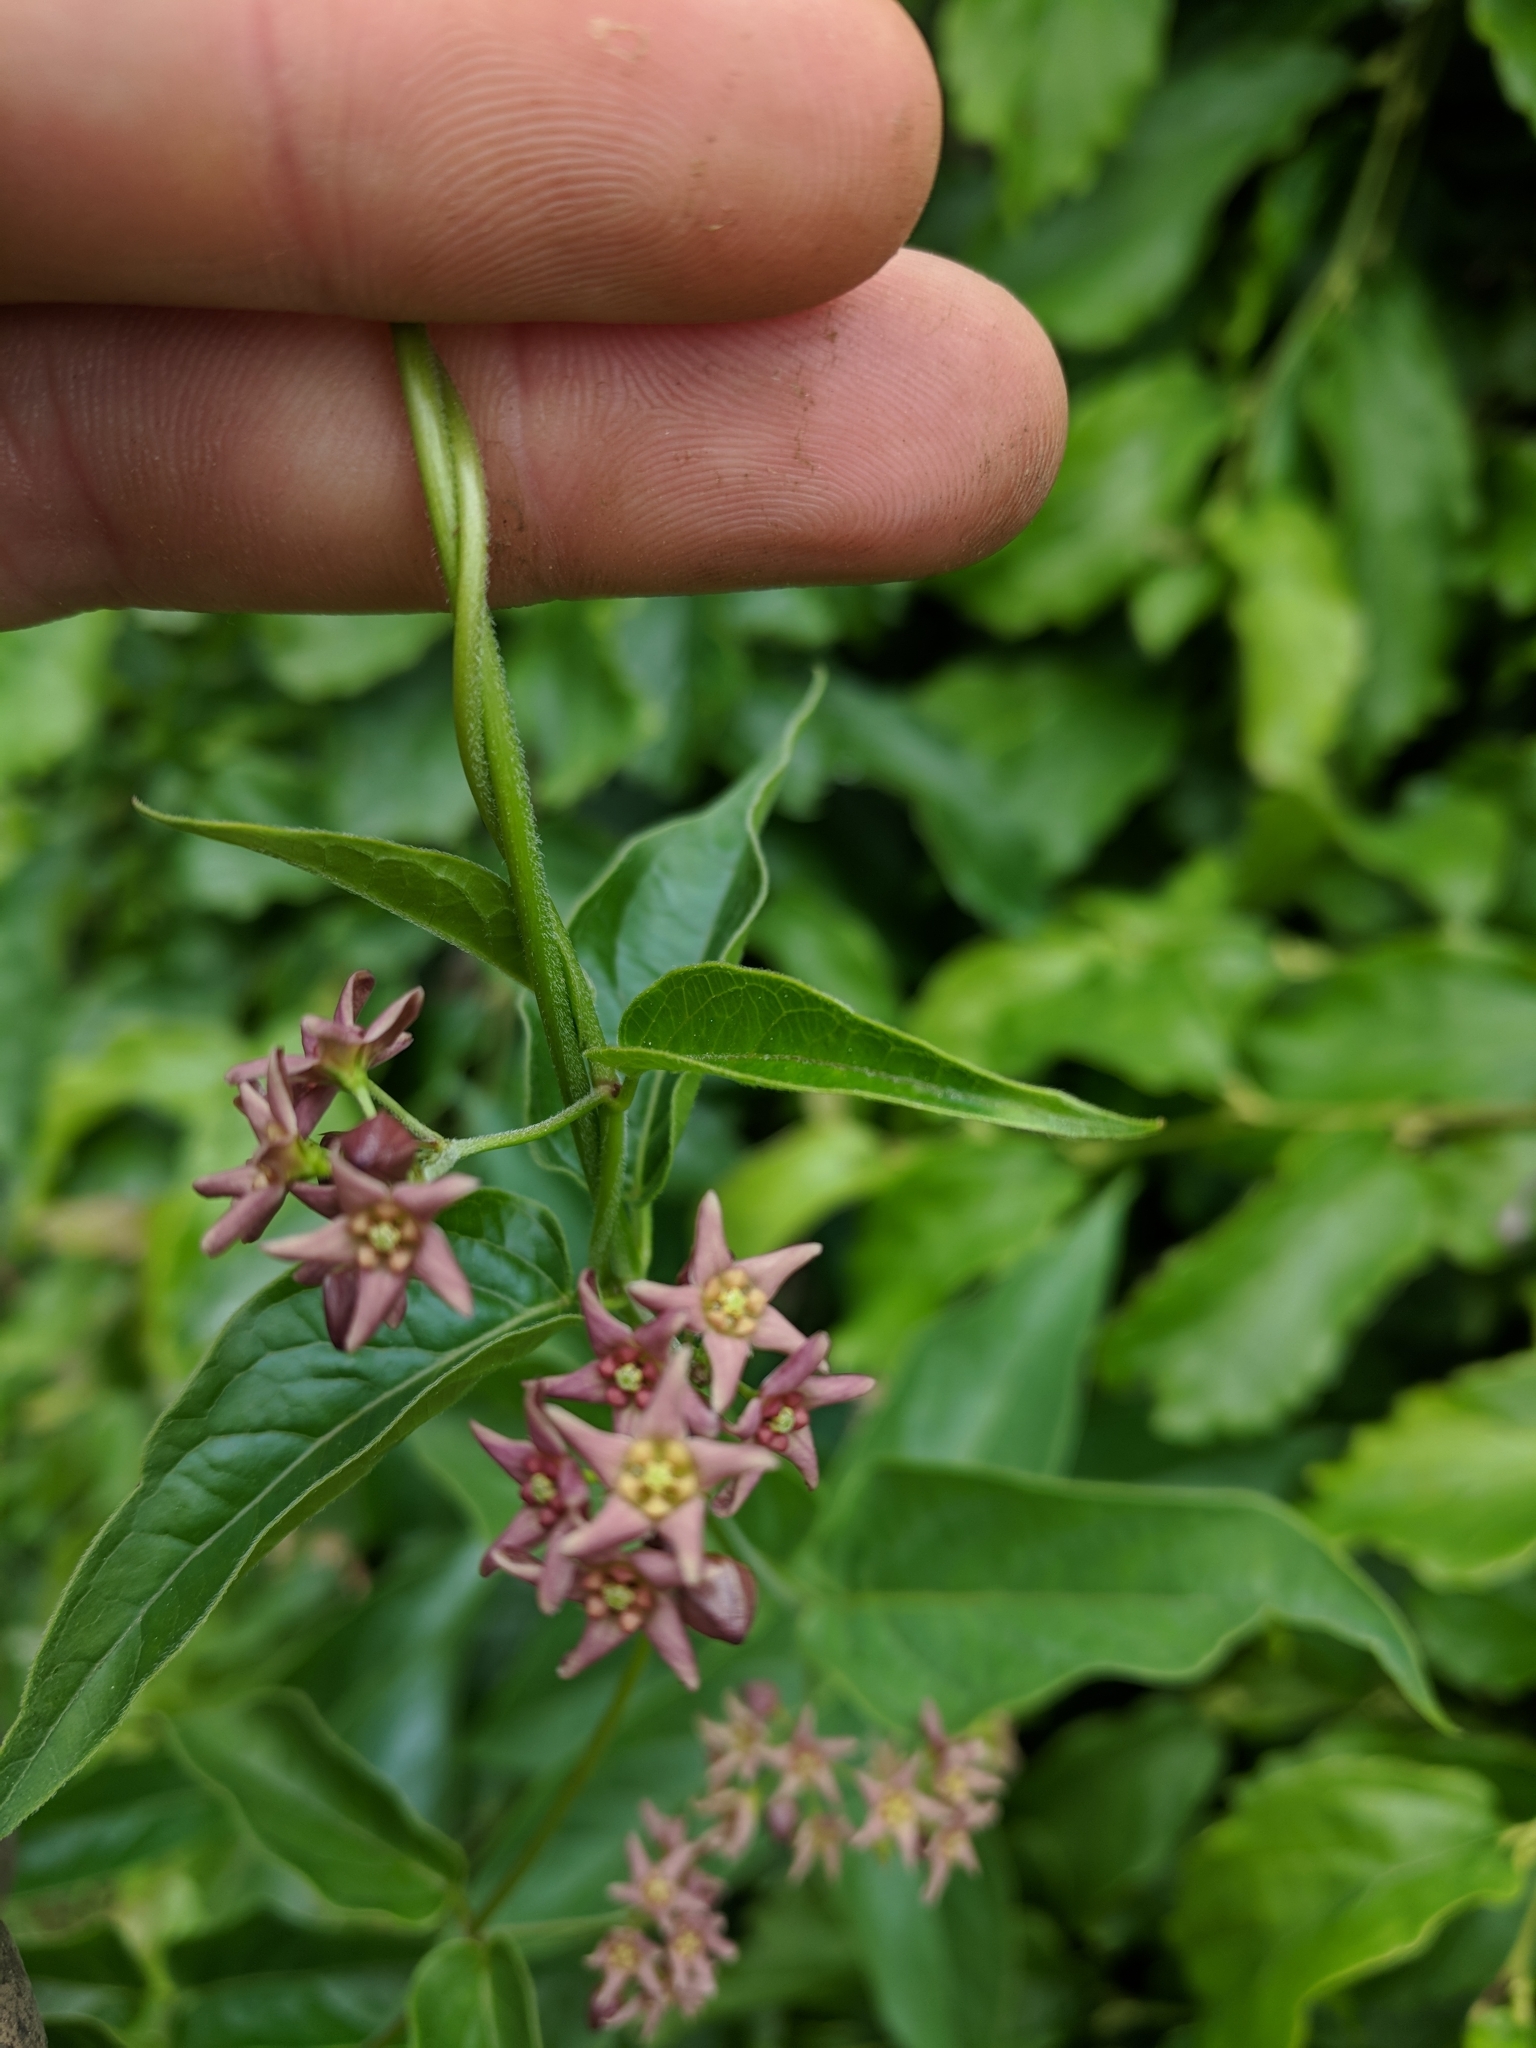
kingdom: Plantae
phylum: Tracheophyta
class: Magnoliopsida
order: Gentianales
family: Apocynaceae
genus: Vincetoxicum
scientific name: Vincetoxicum rossicum
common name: Dog-strangling vine
